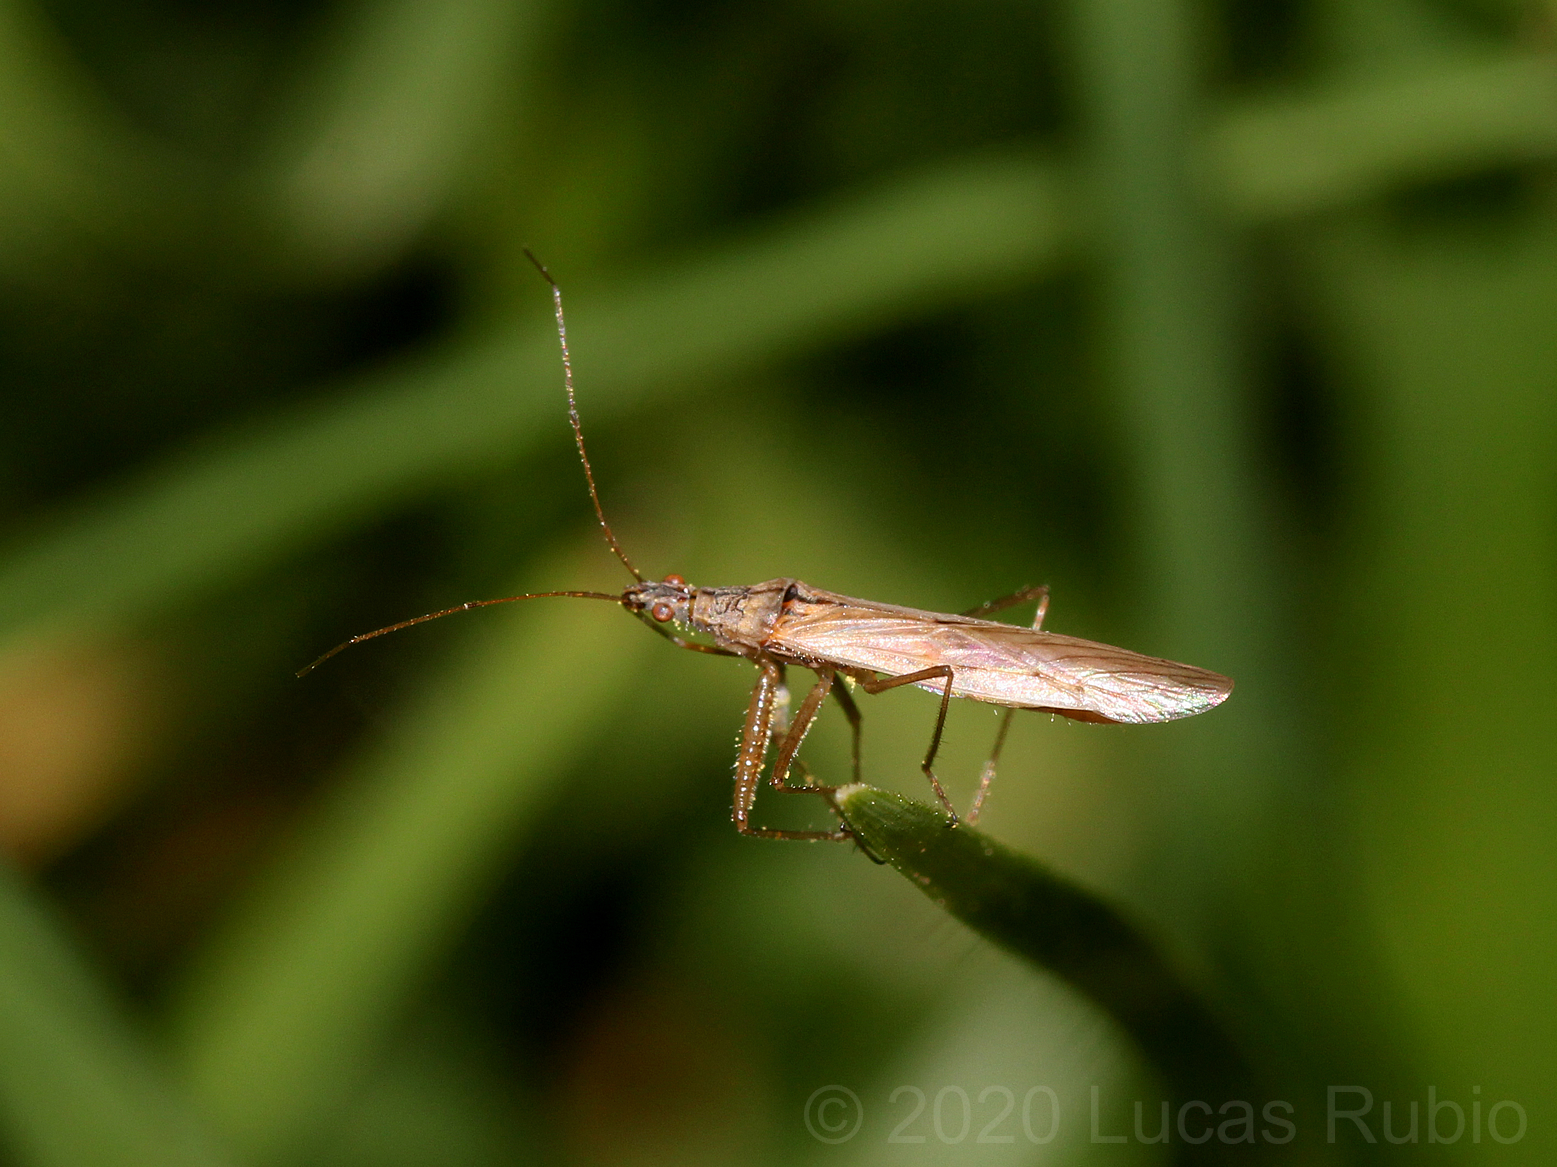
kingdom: Animalia
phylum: Arthropoda
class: Insecta
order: Hemiptera
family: Nabidae
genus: Nabis
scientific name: Nabis capsiformis
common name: Pale damsel bug
